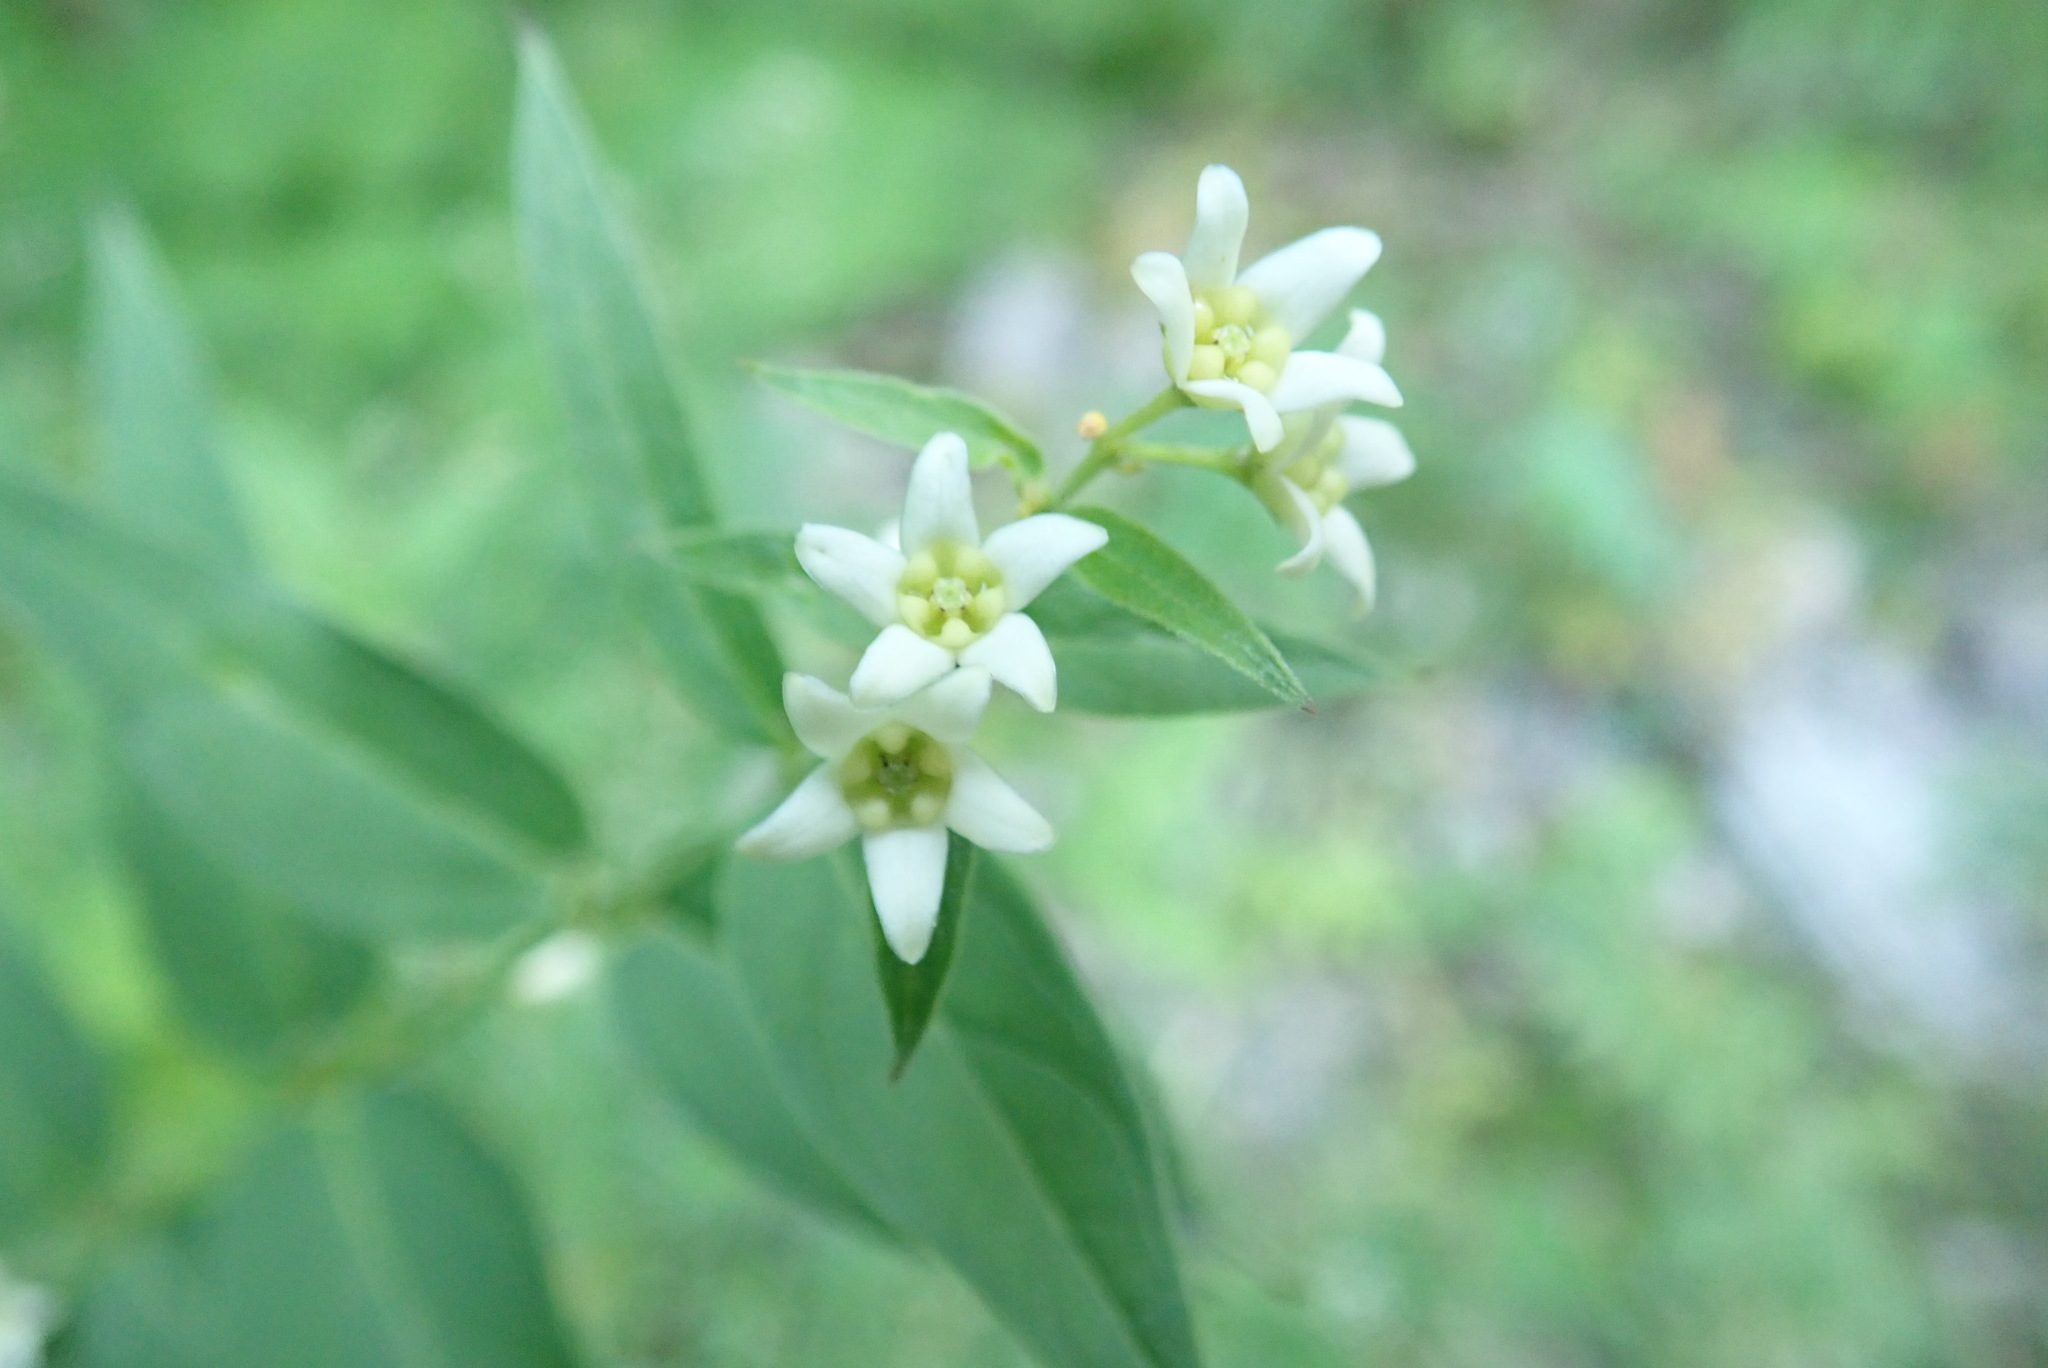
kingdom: Plantae
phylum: Tracheophyta
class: Magnoliopsida
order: Gentianales
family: Apocynaceae
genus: Vincetoxicum
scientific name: Vincetoxicum hirundinaria
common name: White swallowwort
